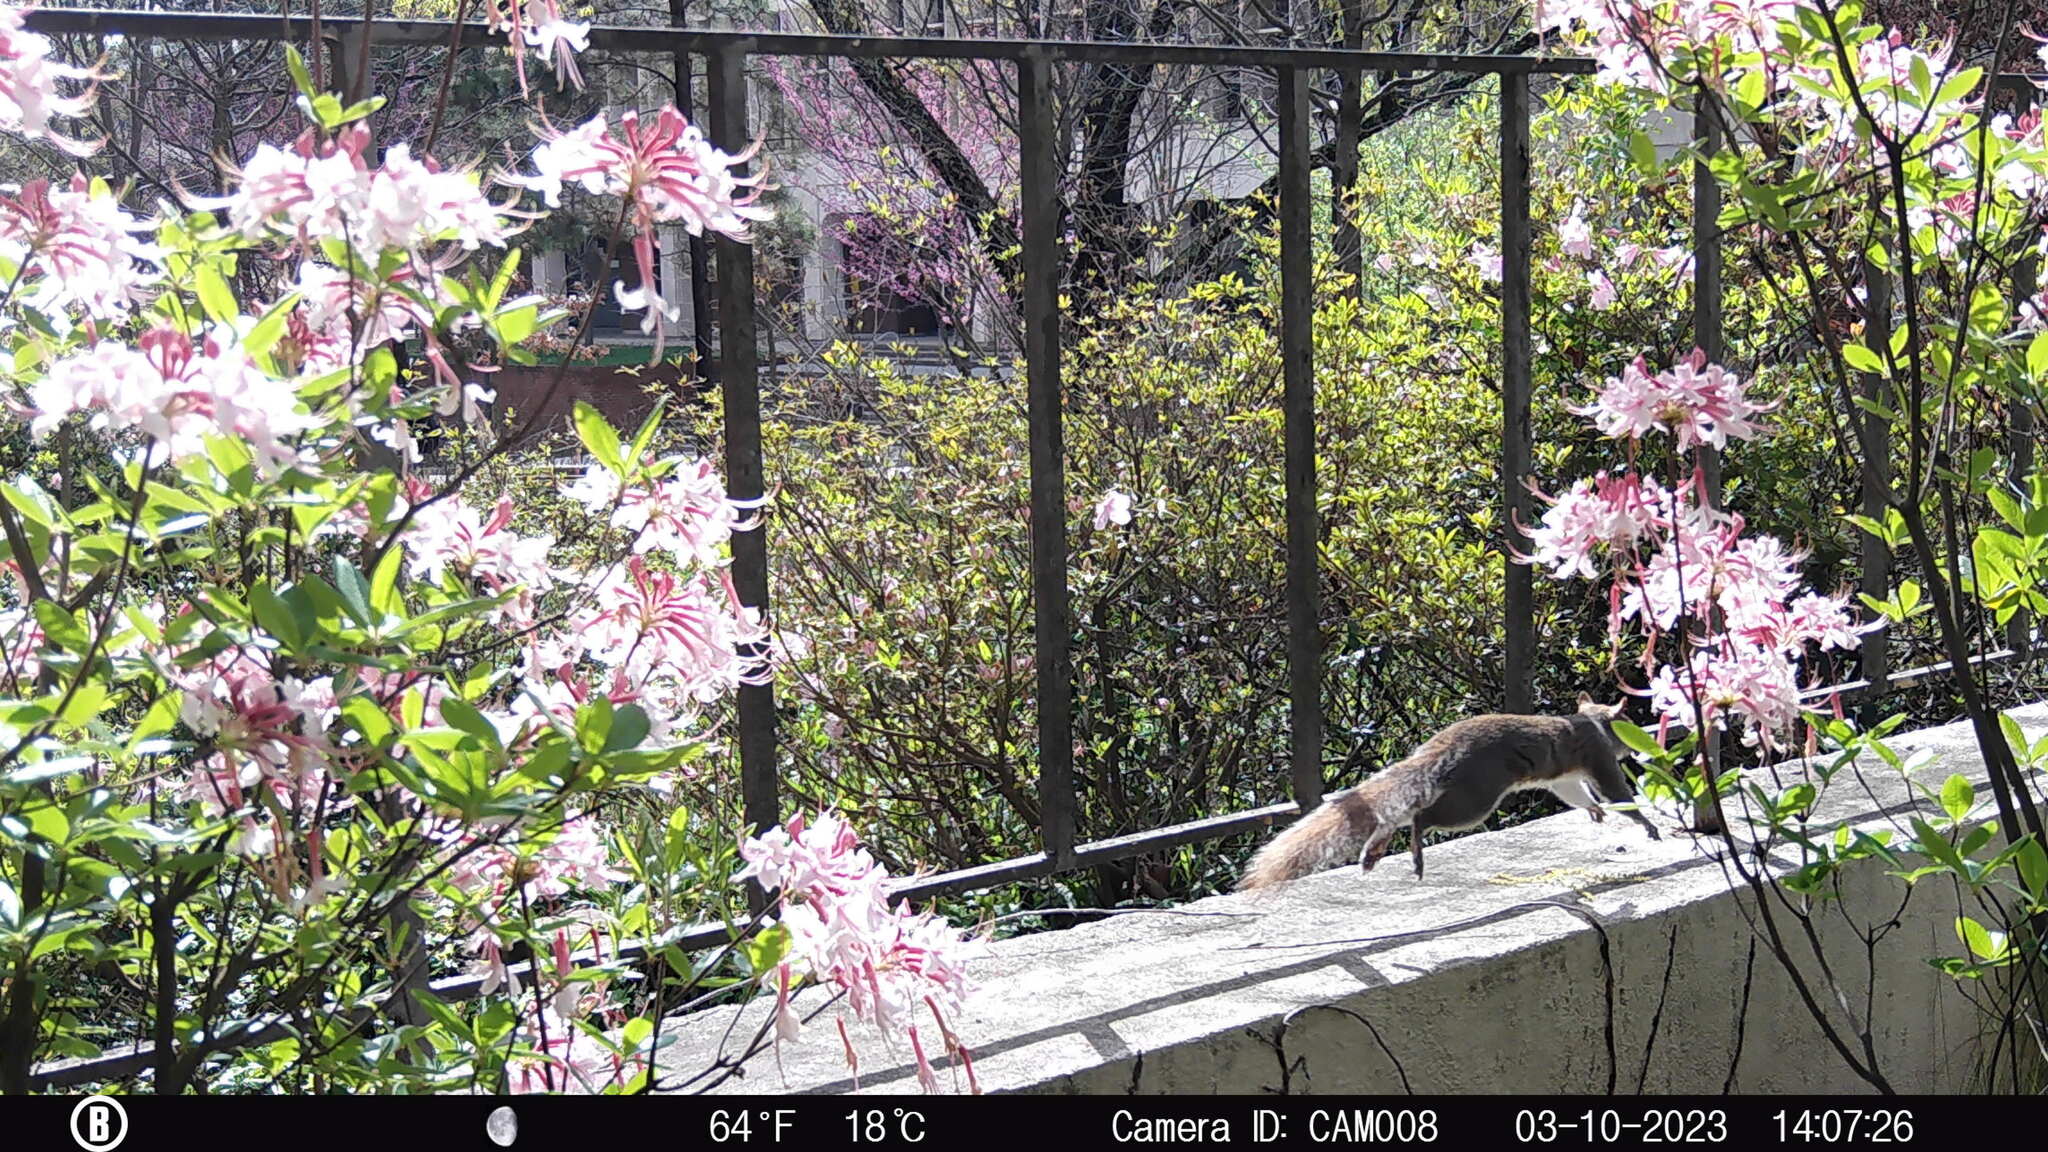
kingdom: Animalia
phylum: Chordata
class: Mammalia
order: Rodentia
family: Sciuridae
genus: Sciurus
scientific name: Sciurus carolinensis
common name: Eastern gray squirrel
